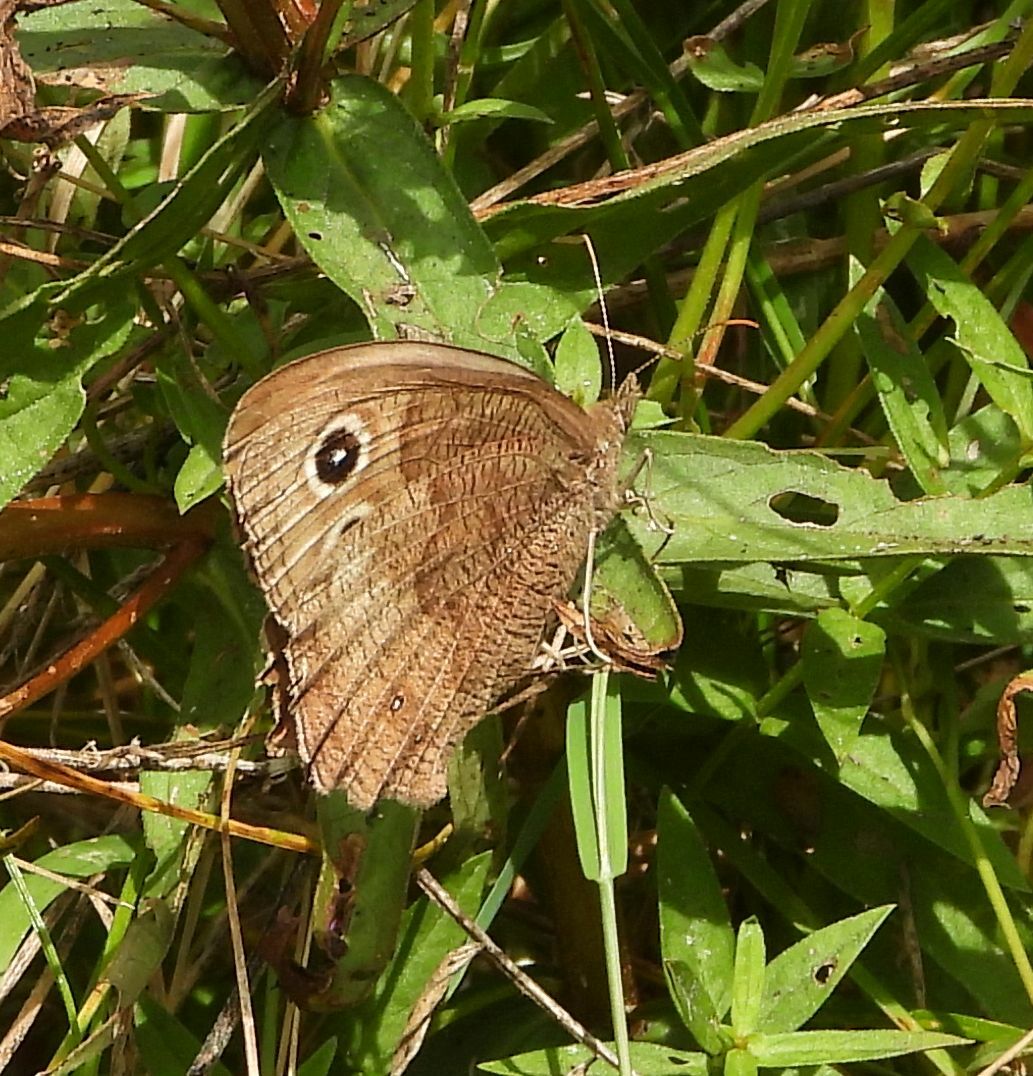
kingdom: Animalia
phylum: Arthropoda
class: Insecta
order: Lepidoptera
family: Nymphalidae
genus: Cercyonis
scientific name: Cercyonis pegala
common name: Common wood-nymph
